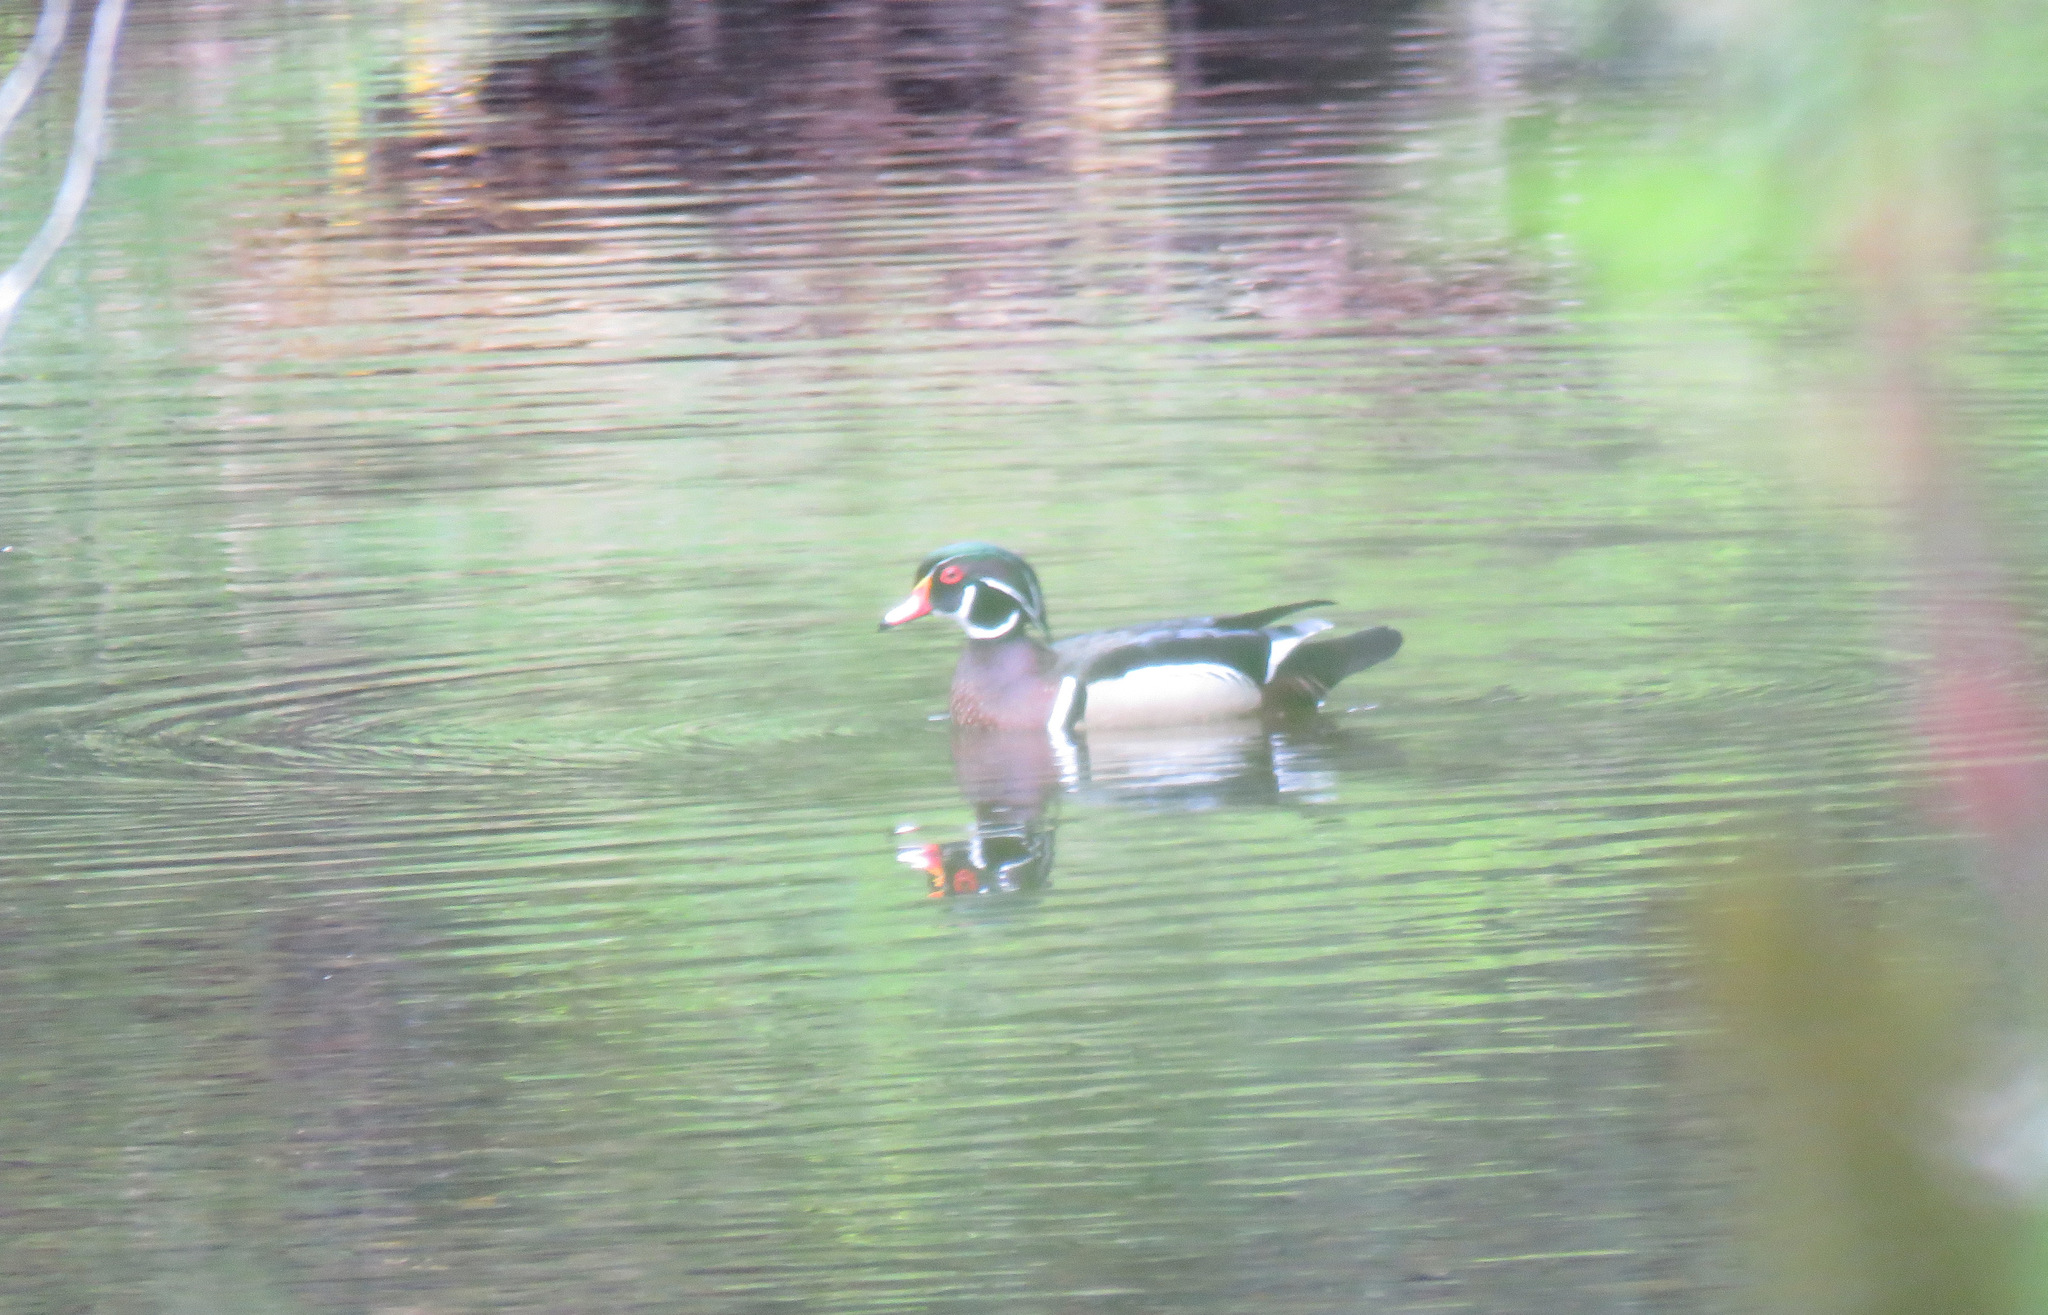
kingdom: Animalia
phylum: Chordata
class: Aves
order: Anseriformes
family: Anatidae
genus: Aix
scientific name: Aix sponsa
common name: Wood duck
